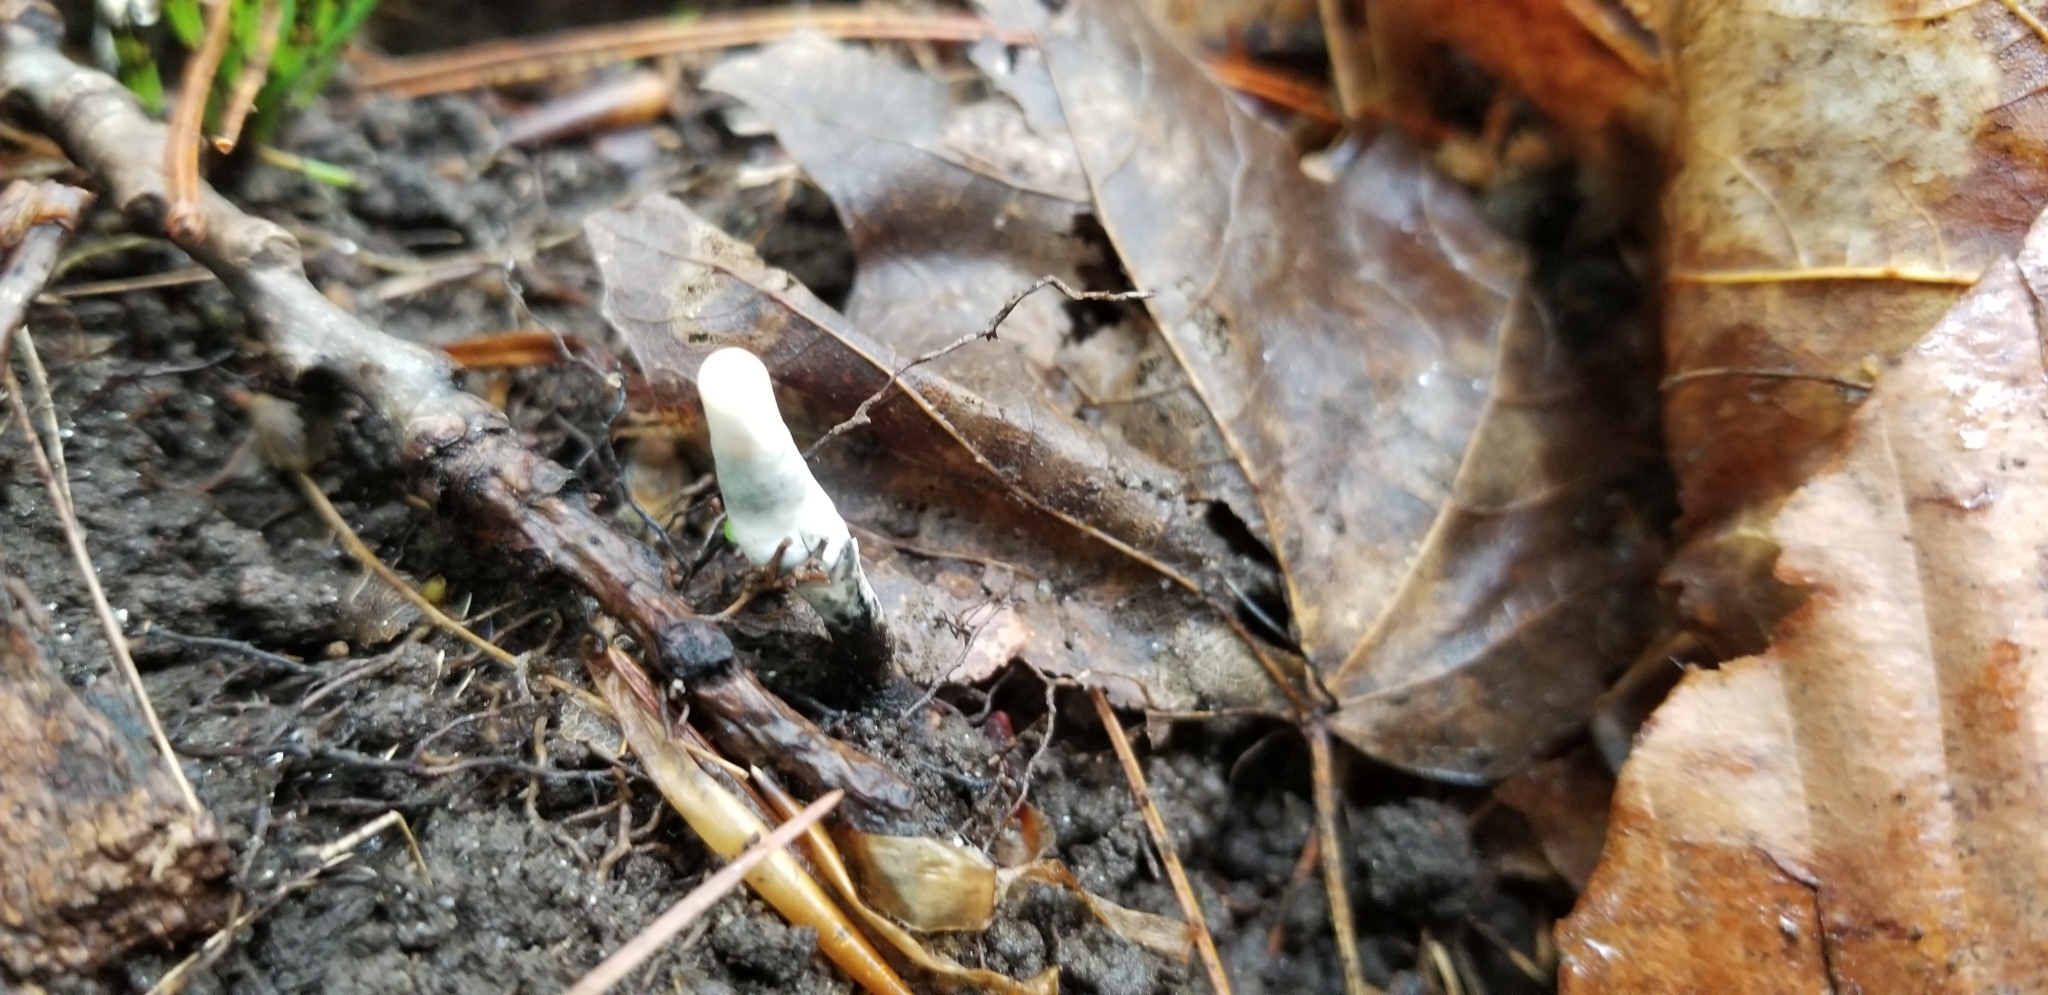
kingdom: Fungi
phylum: Ascomycota
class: Sordariomycetes
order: Xylariales
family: Xylariaceae
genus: Xylaria
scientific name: Xylaria polymorpha
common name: Dead man's fingers
